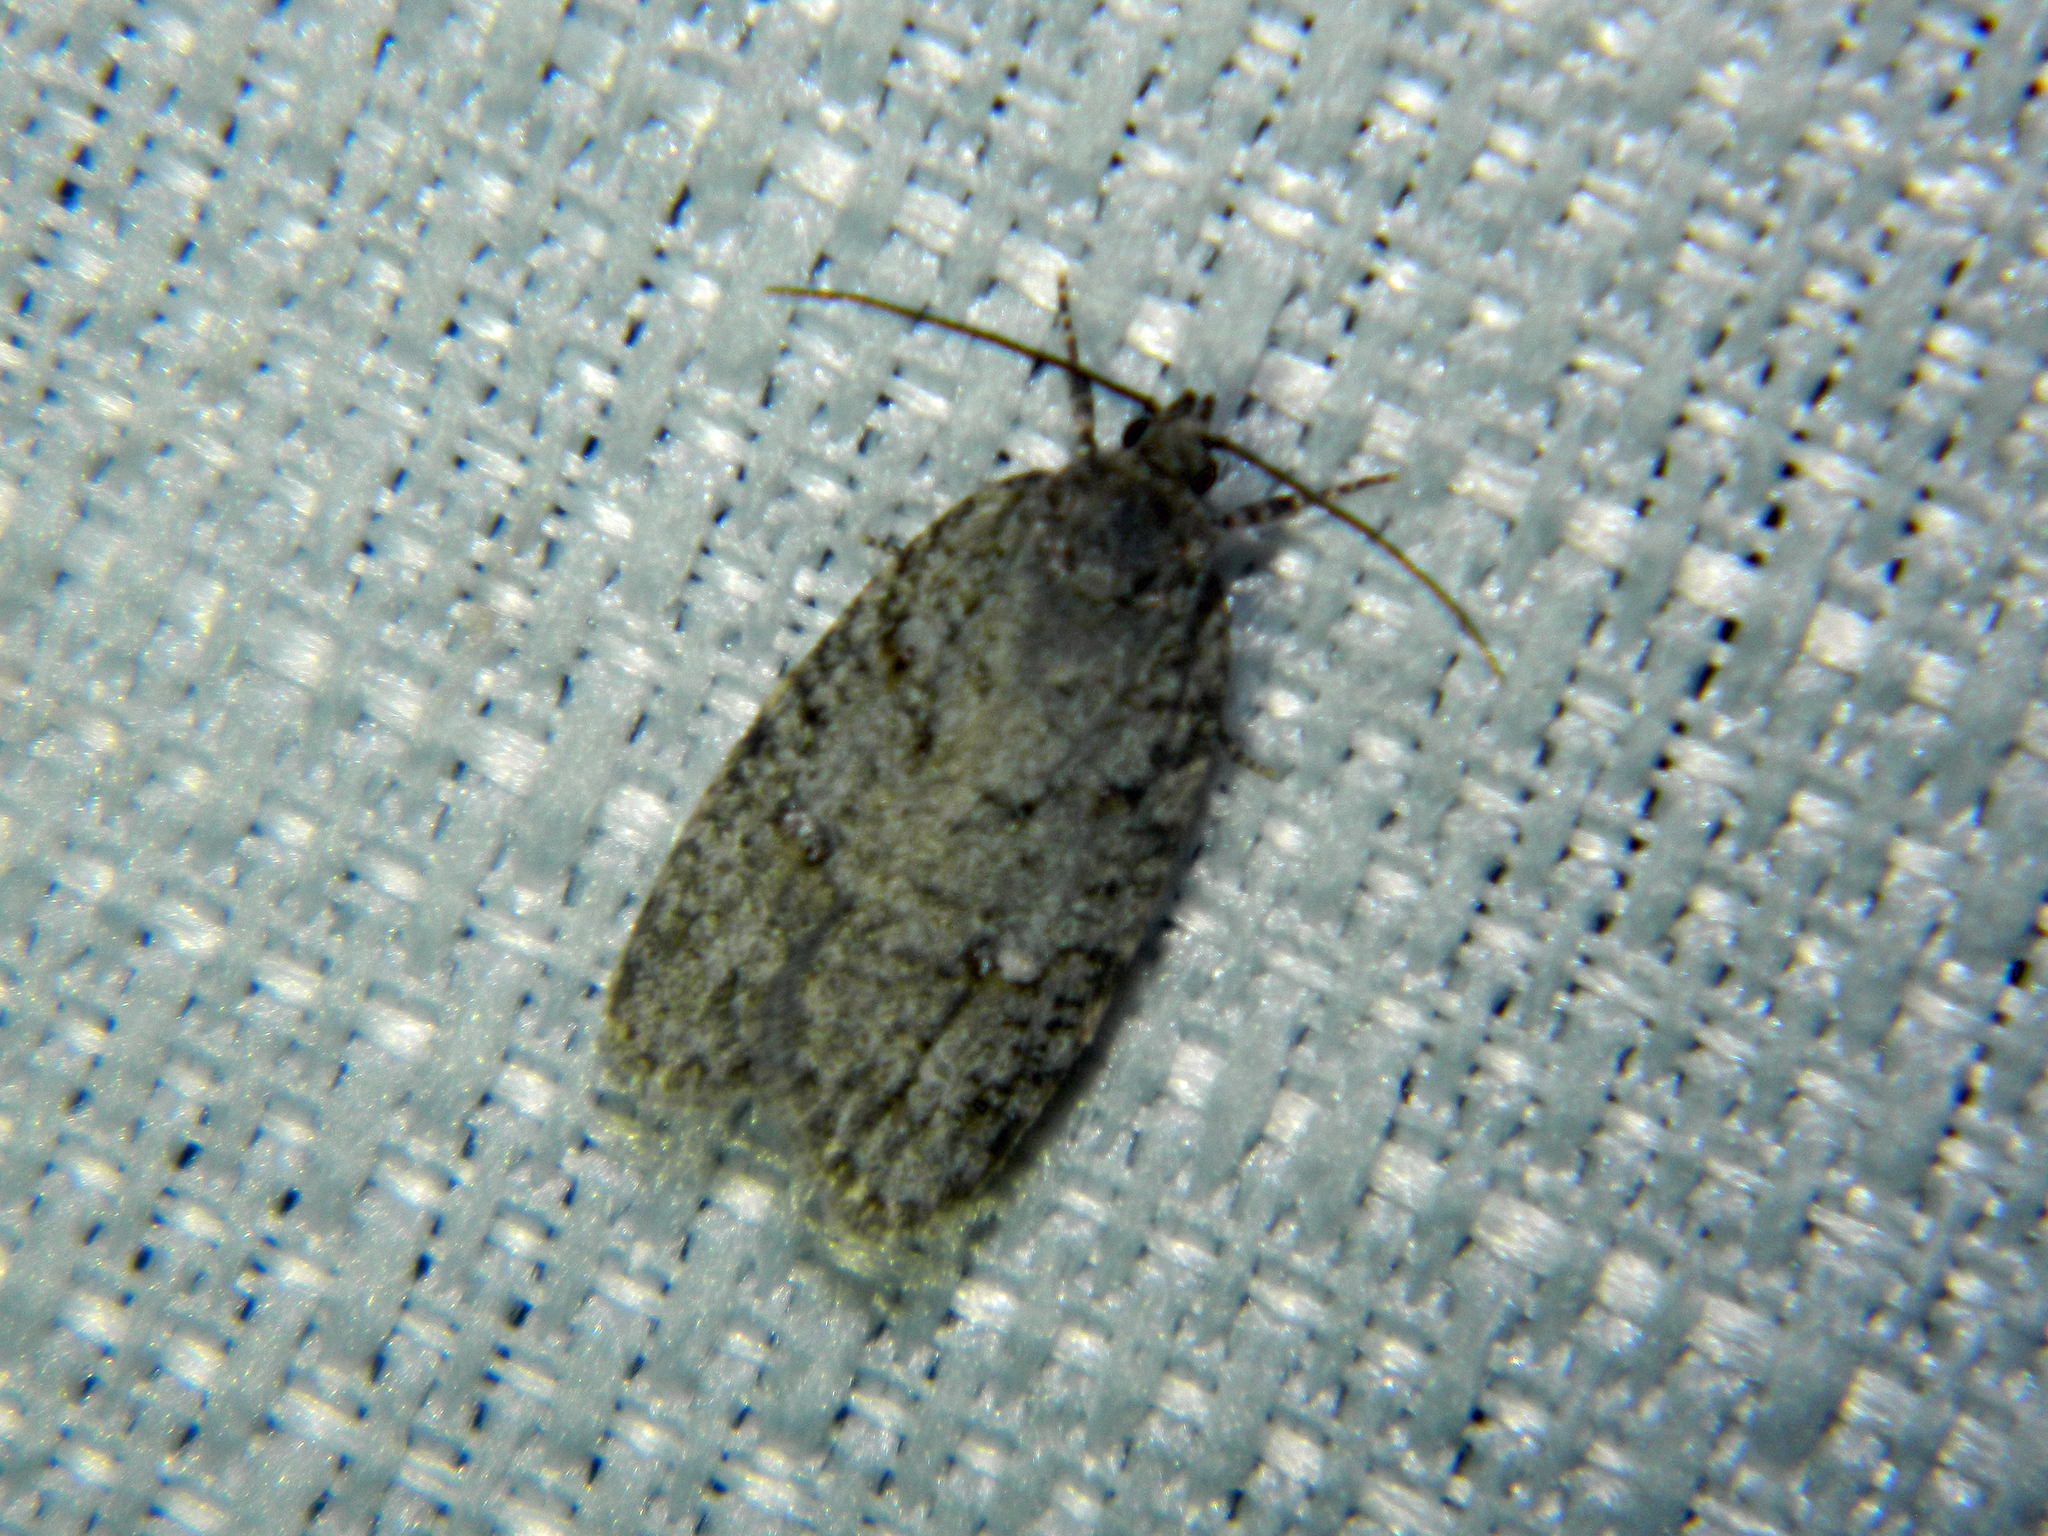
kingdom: Animalia
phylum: Arthropoda
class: Insecta
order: Lepidoptera
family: Depressariidae
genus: Bibarrambla
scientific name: Bibarrambla allenella
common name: Bog bibarrambla moth
